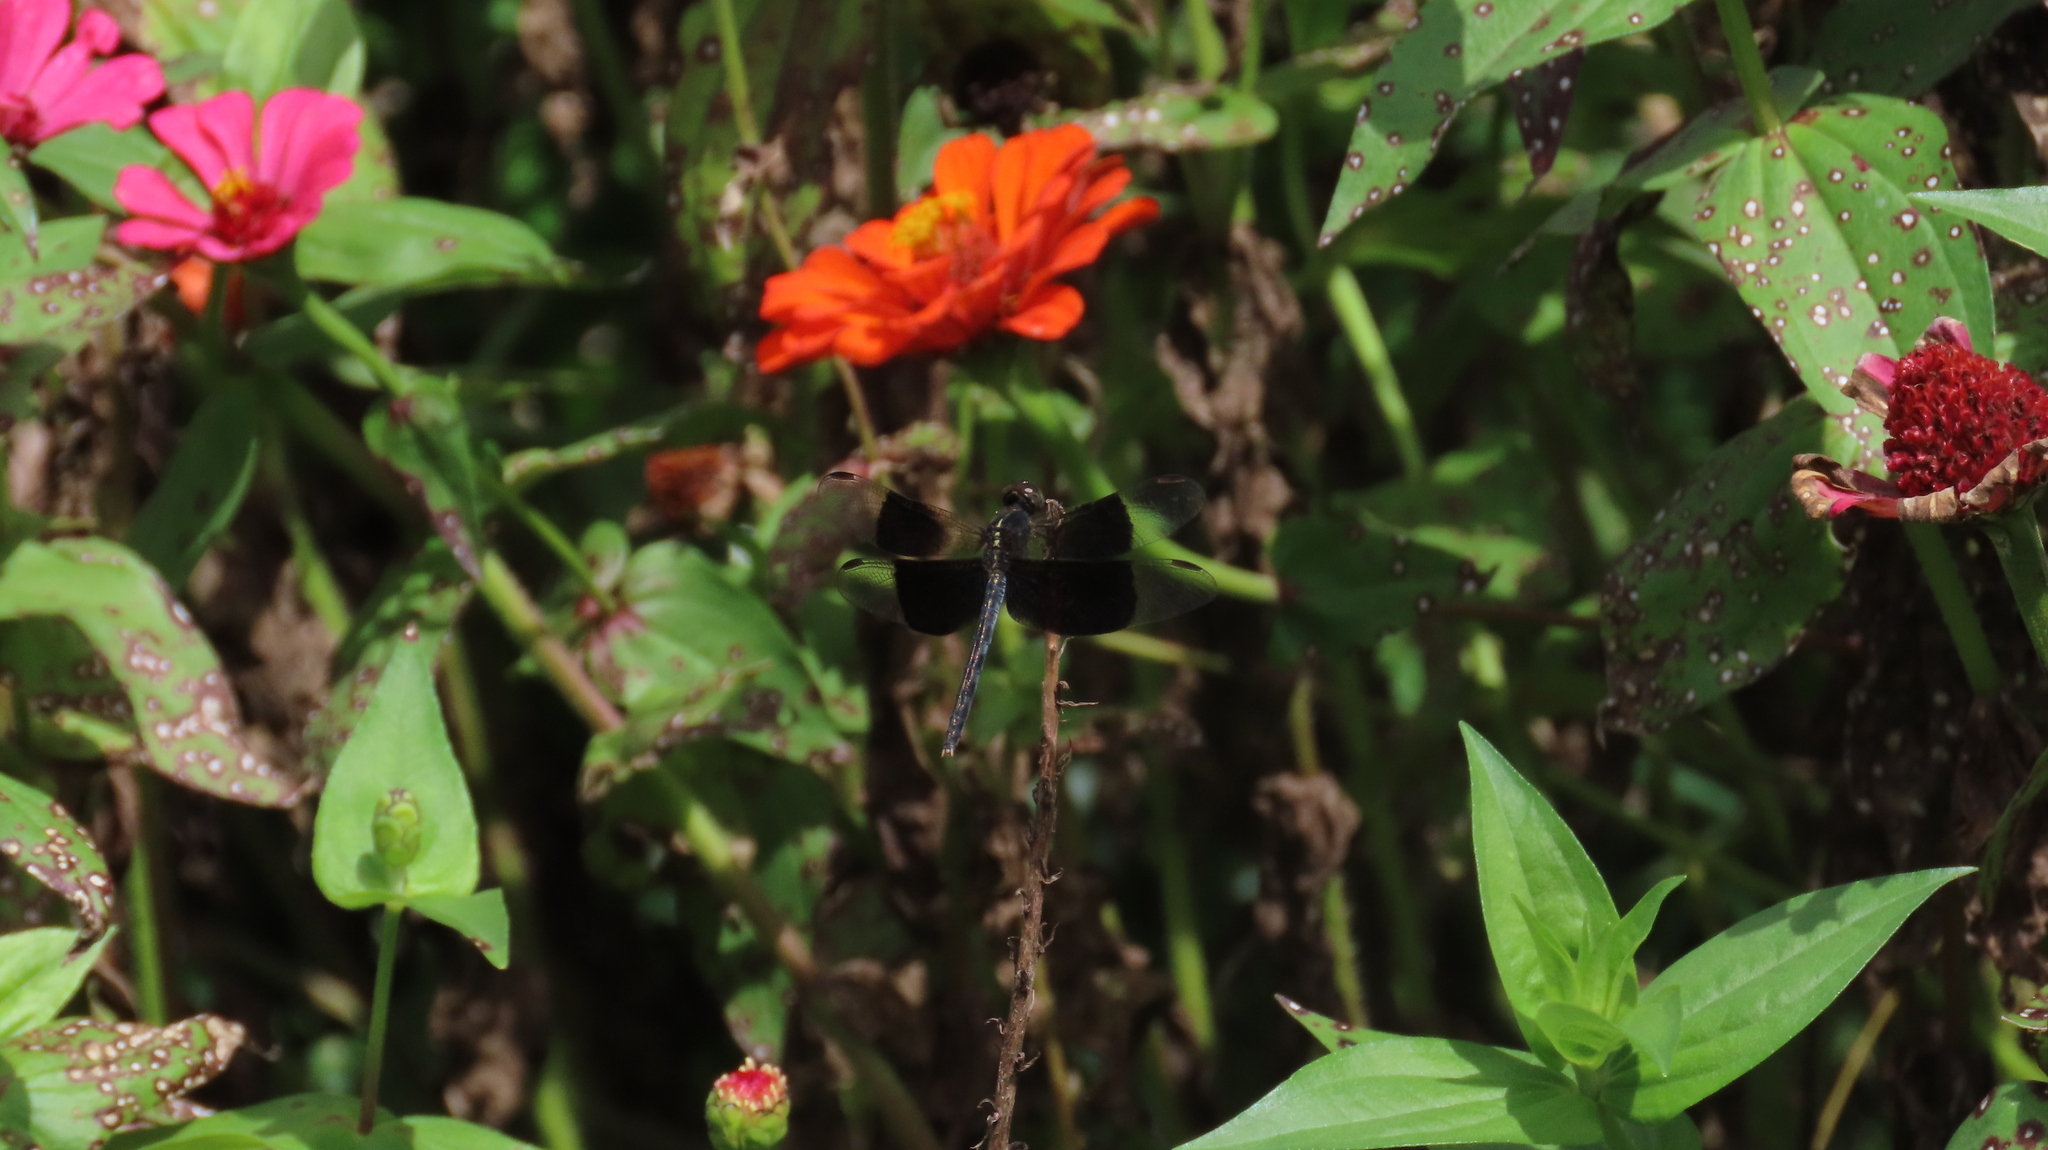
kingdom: Animalia
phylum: Arthropoda
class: Insecta
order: Odonata
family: Libellulidae
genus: Erythrodiplax
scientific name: Erythrodiplax funerea
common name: Black-winged dragonlet
